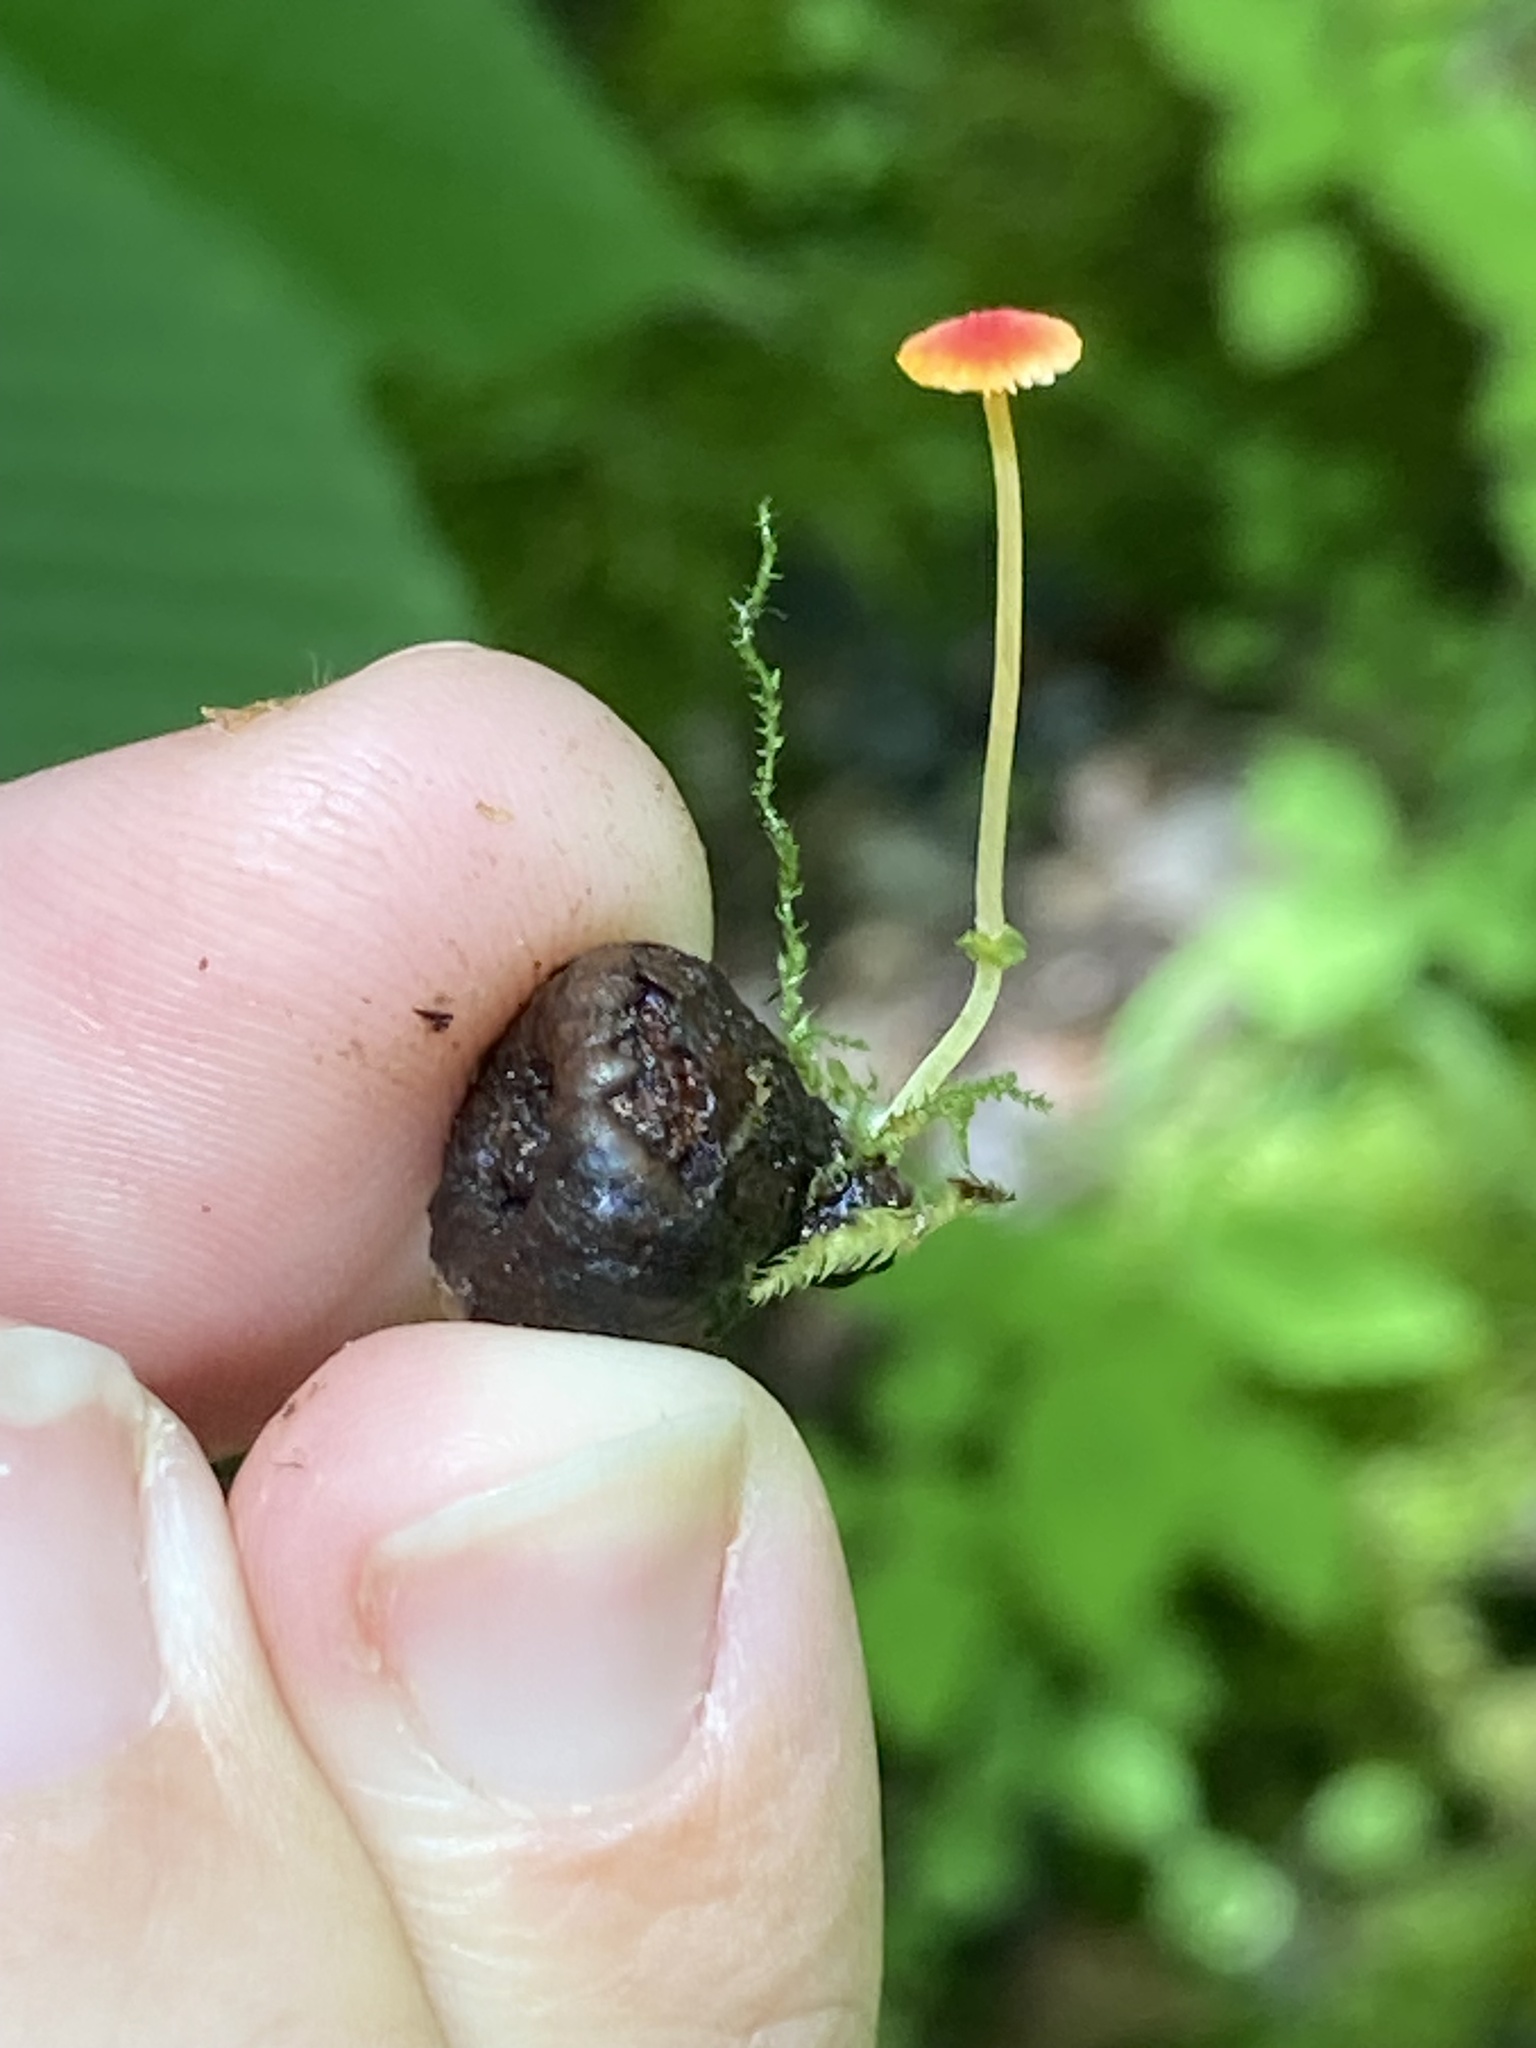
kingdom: Fungi
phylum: Basidiomycota
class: Agaricomycetes
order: Agaricales
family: Mycenaceae
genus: Mycena
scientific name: Mycena acicula
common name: Orange bonnet
